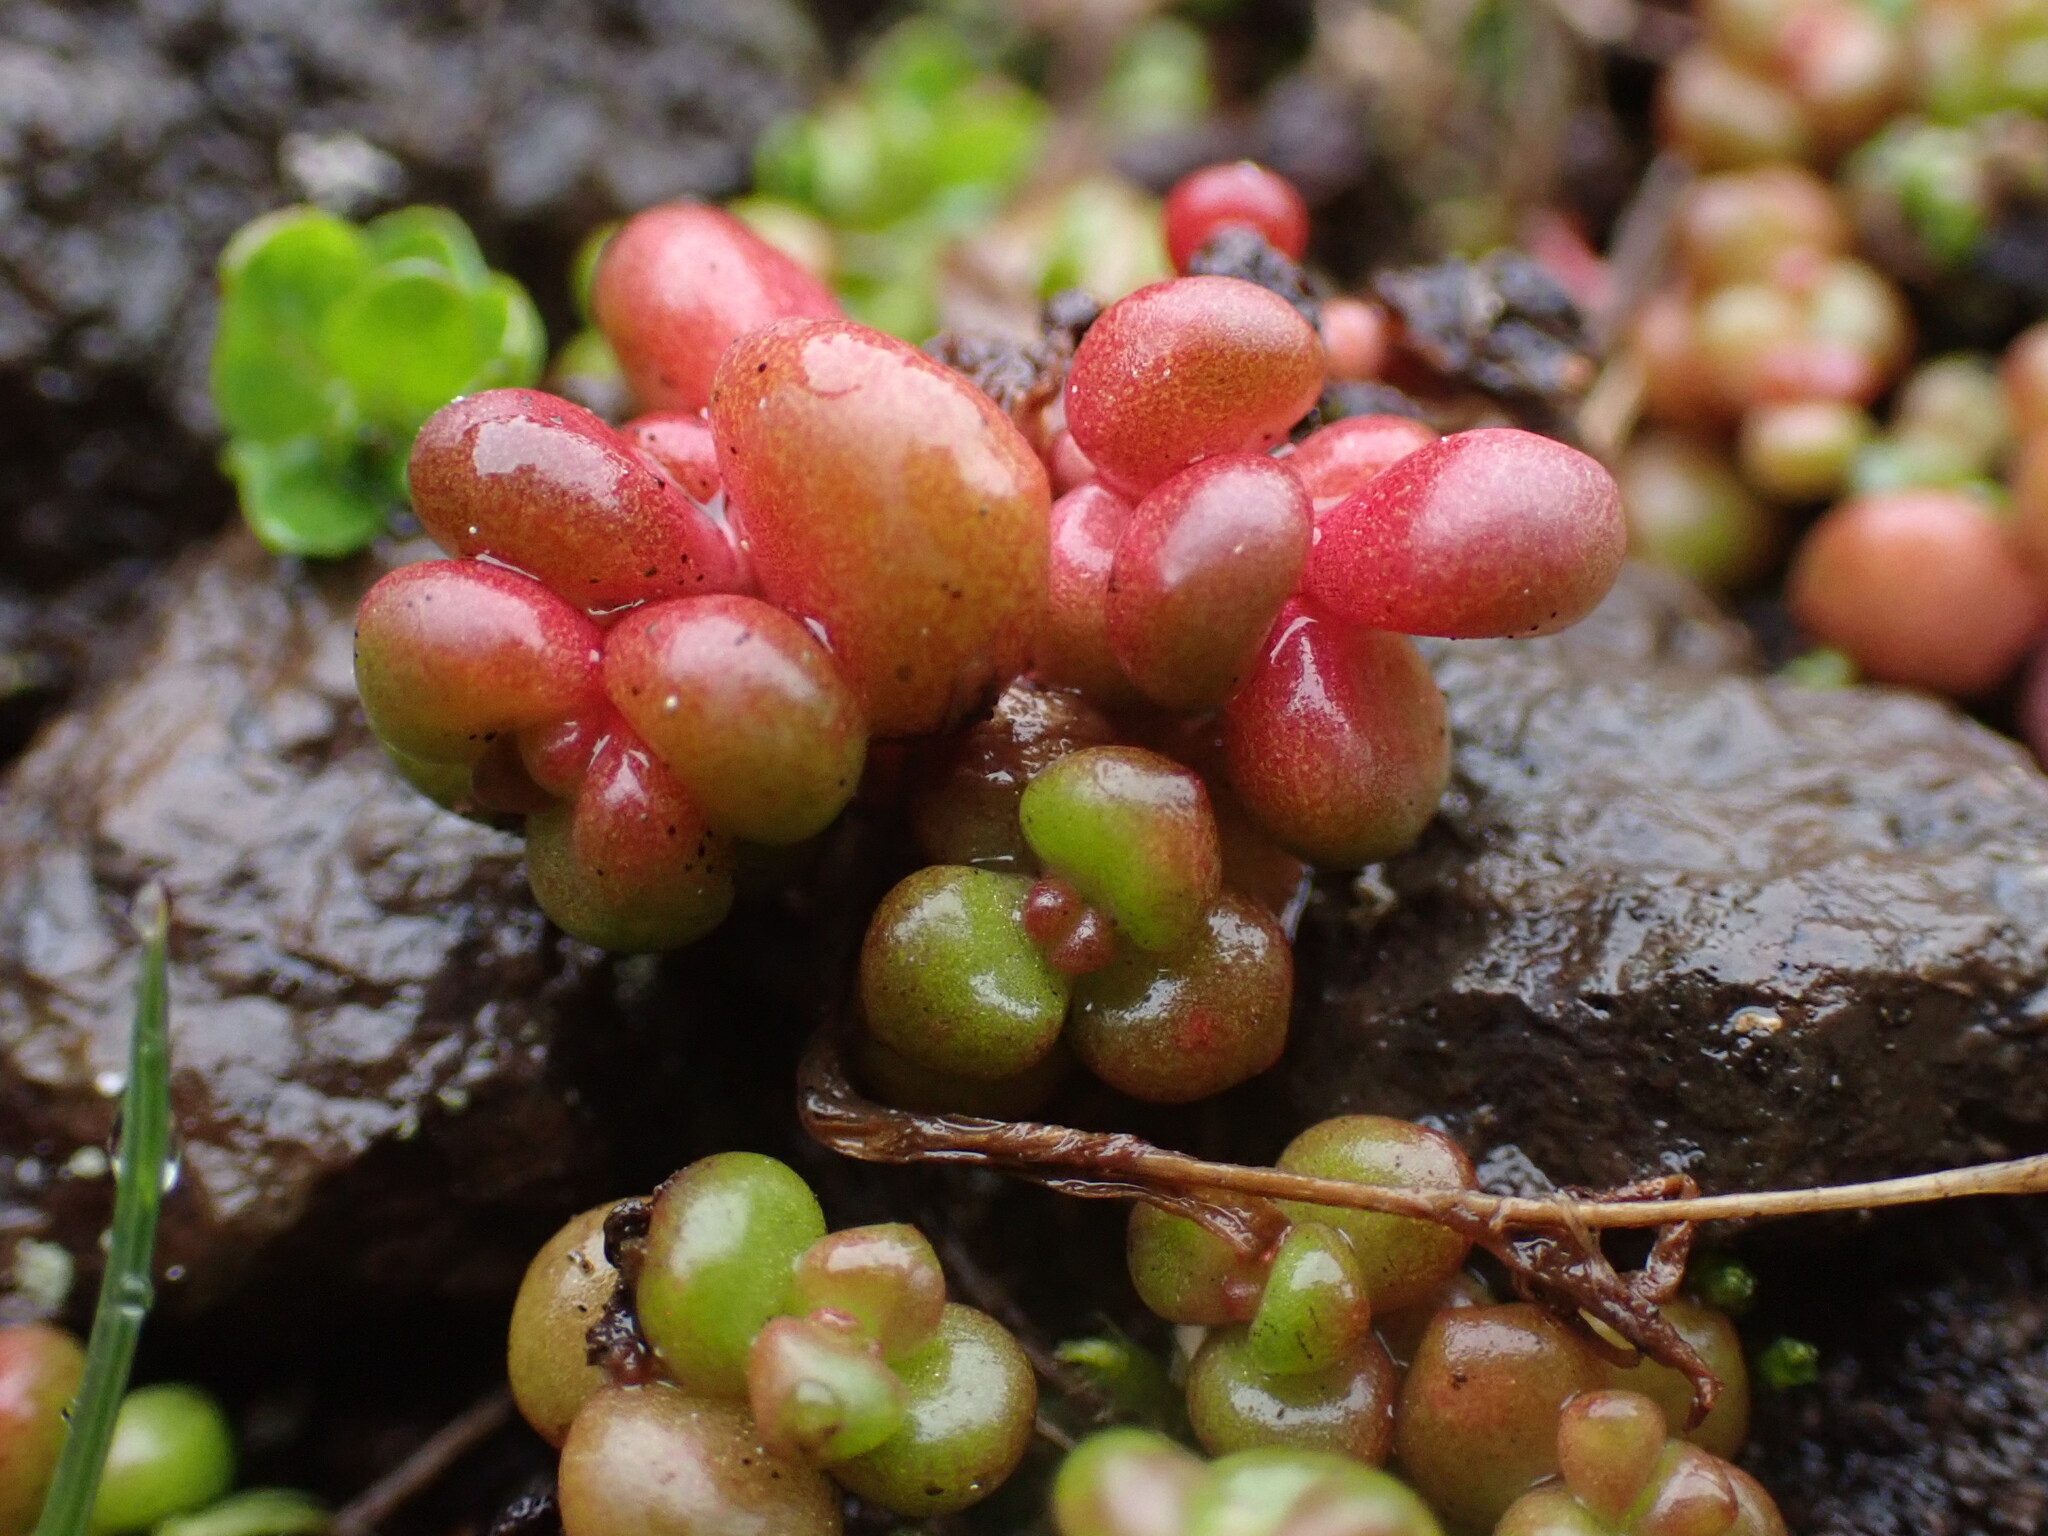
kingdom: Plantae
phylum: Tracheophyta
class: Magnoliopsida
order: Saxifragales
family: Crassulaceae
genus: Sedum
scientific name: Sedum divergens
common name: Cascade stonecrop
